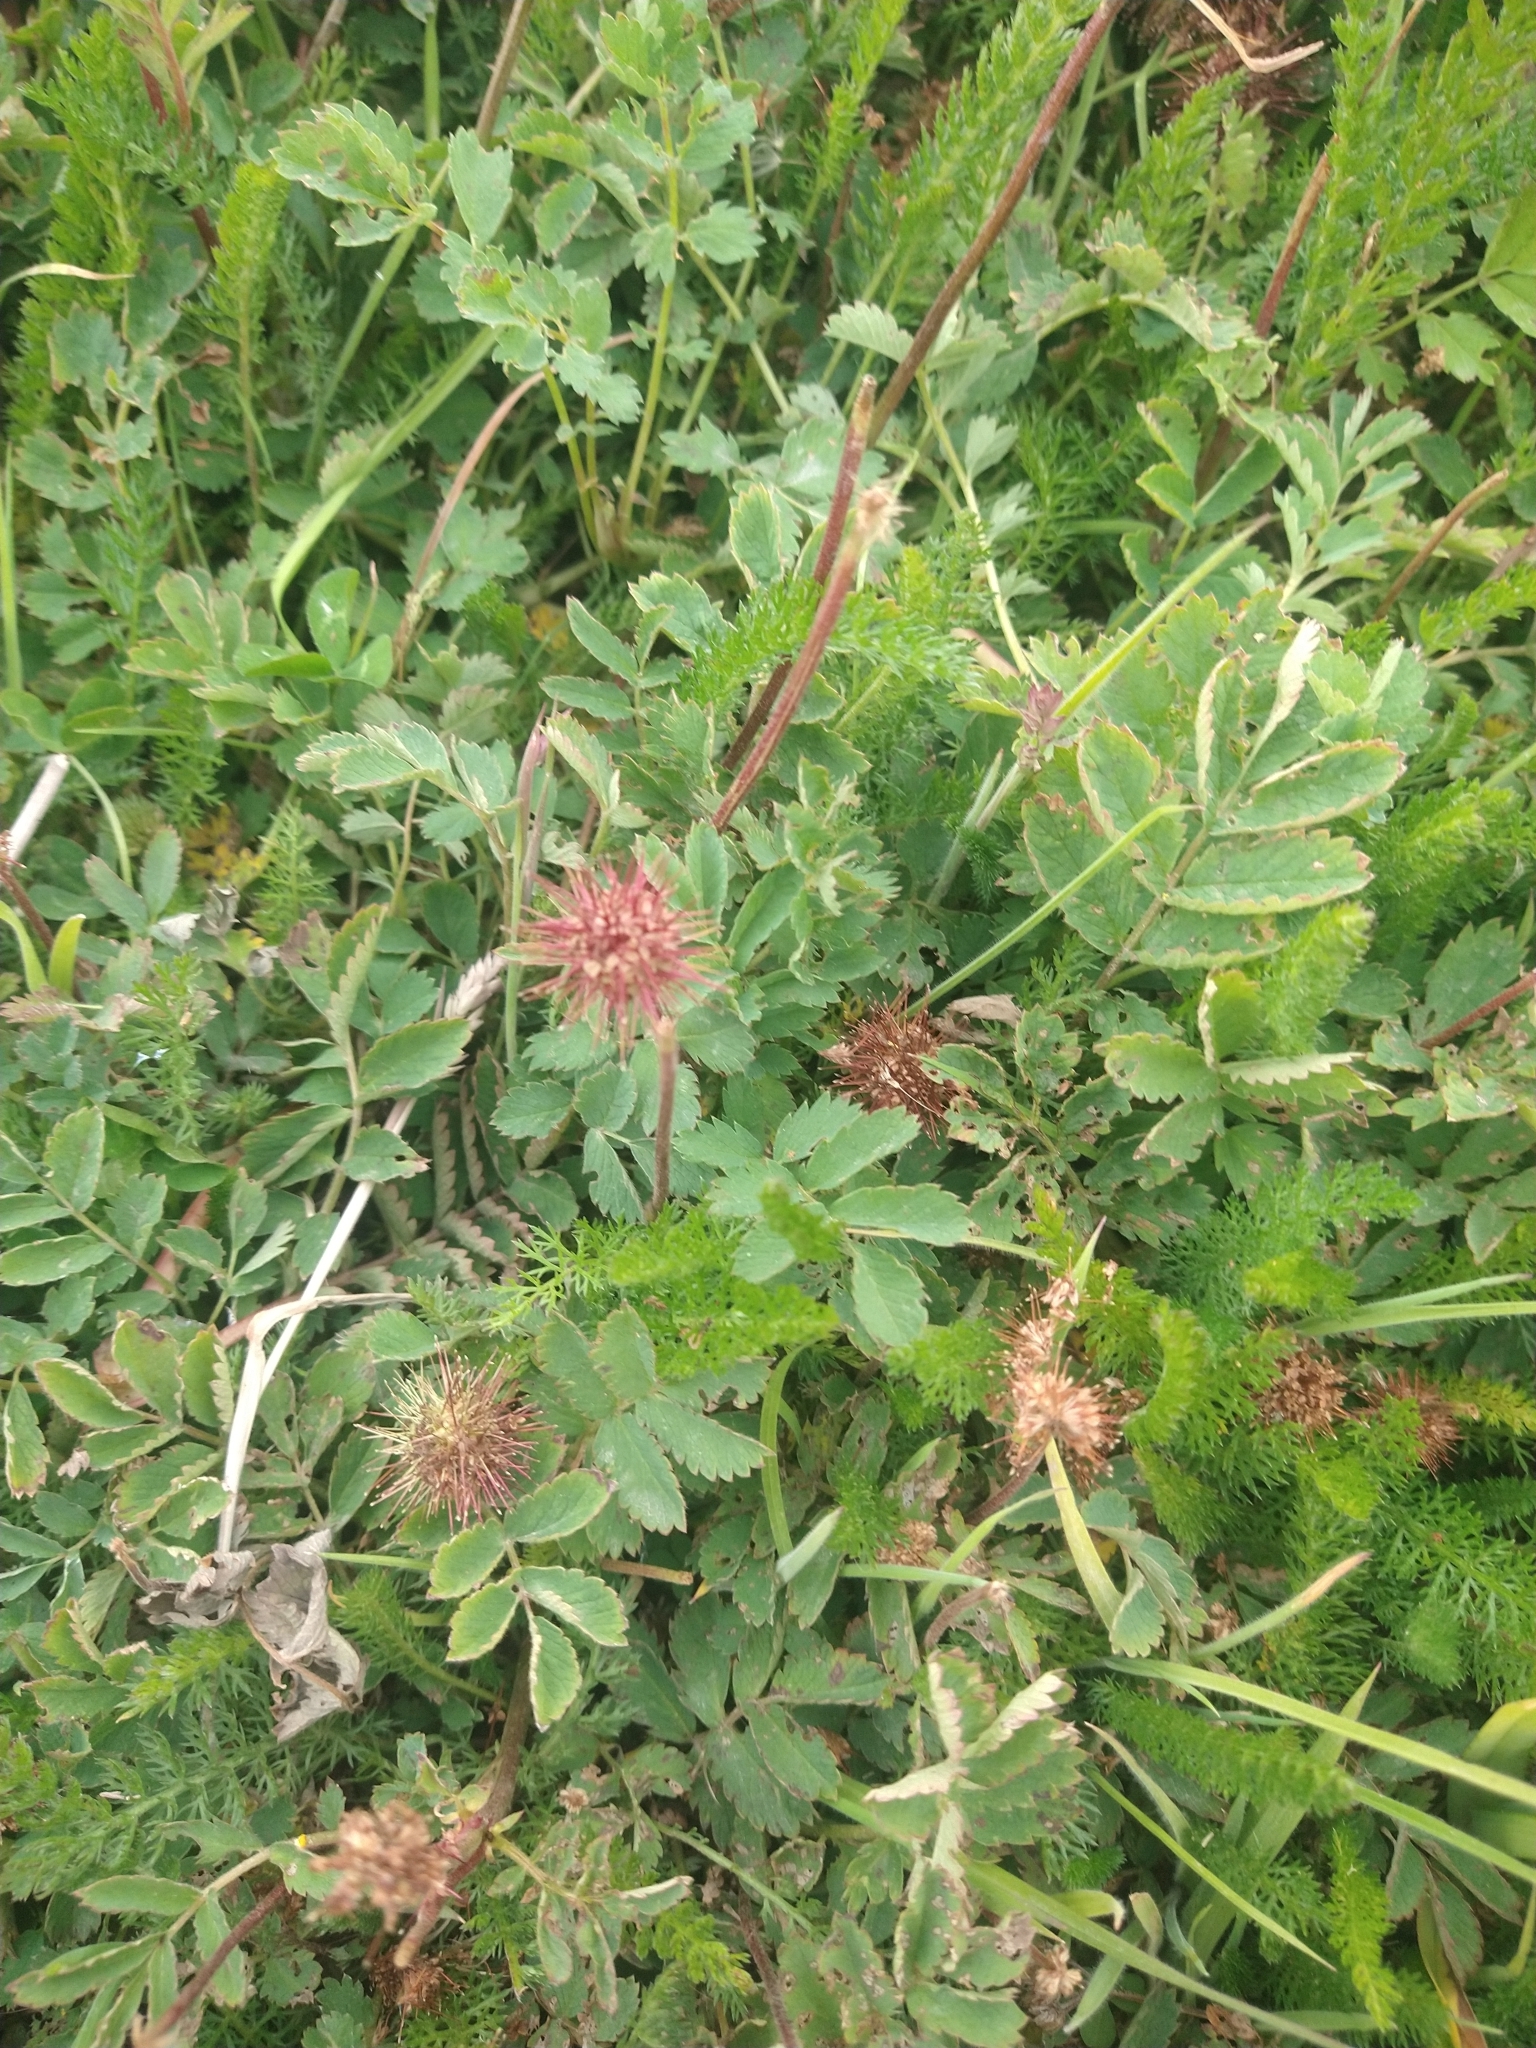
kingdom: Plantae
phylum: Tracheophyta
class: Magnoliopsida
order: Rosales
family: Rosaceae
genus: Acaena
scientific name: Acaena magellanica
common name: New zealand burr
